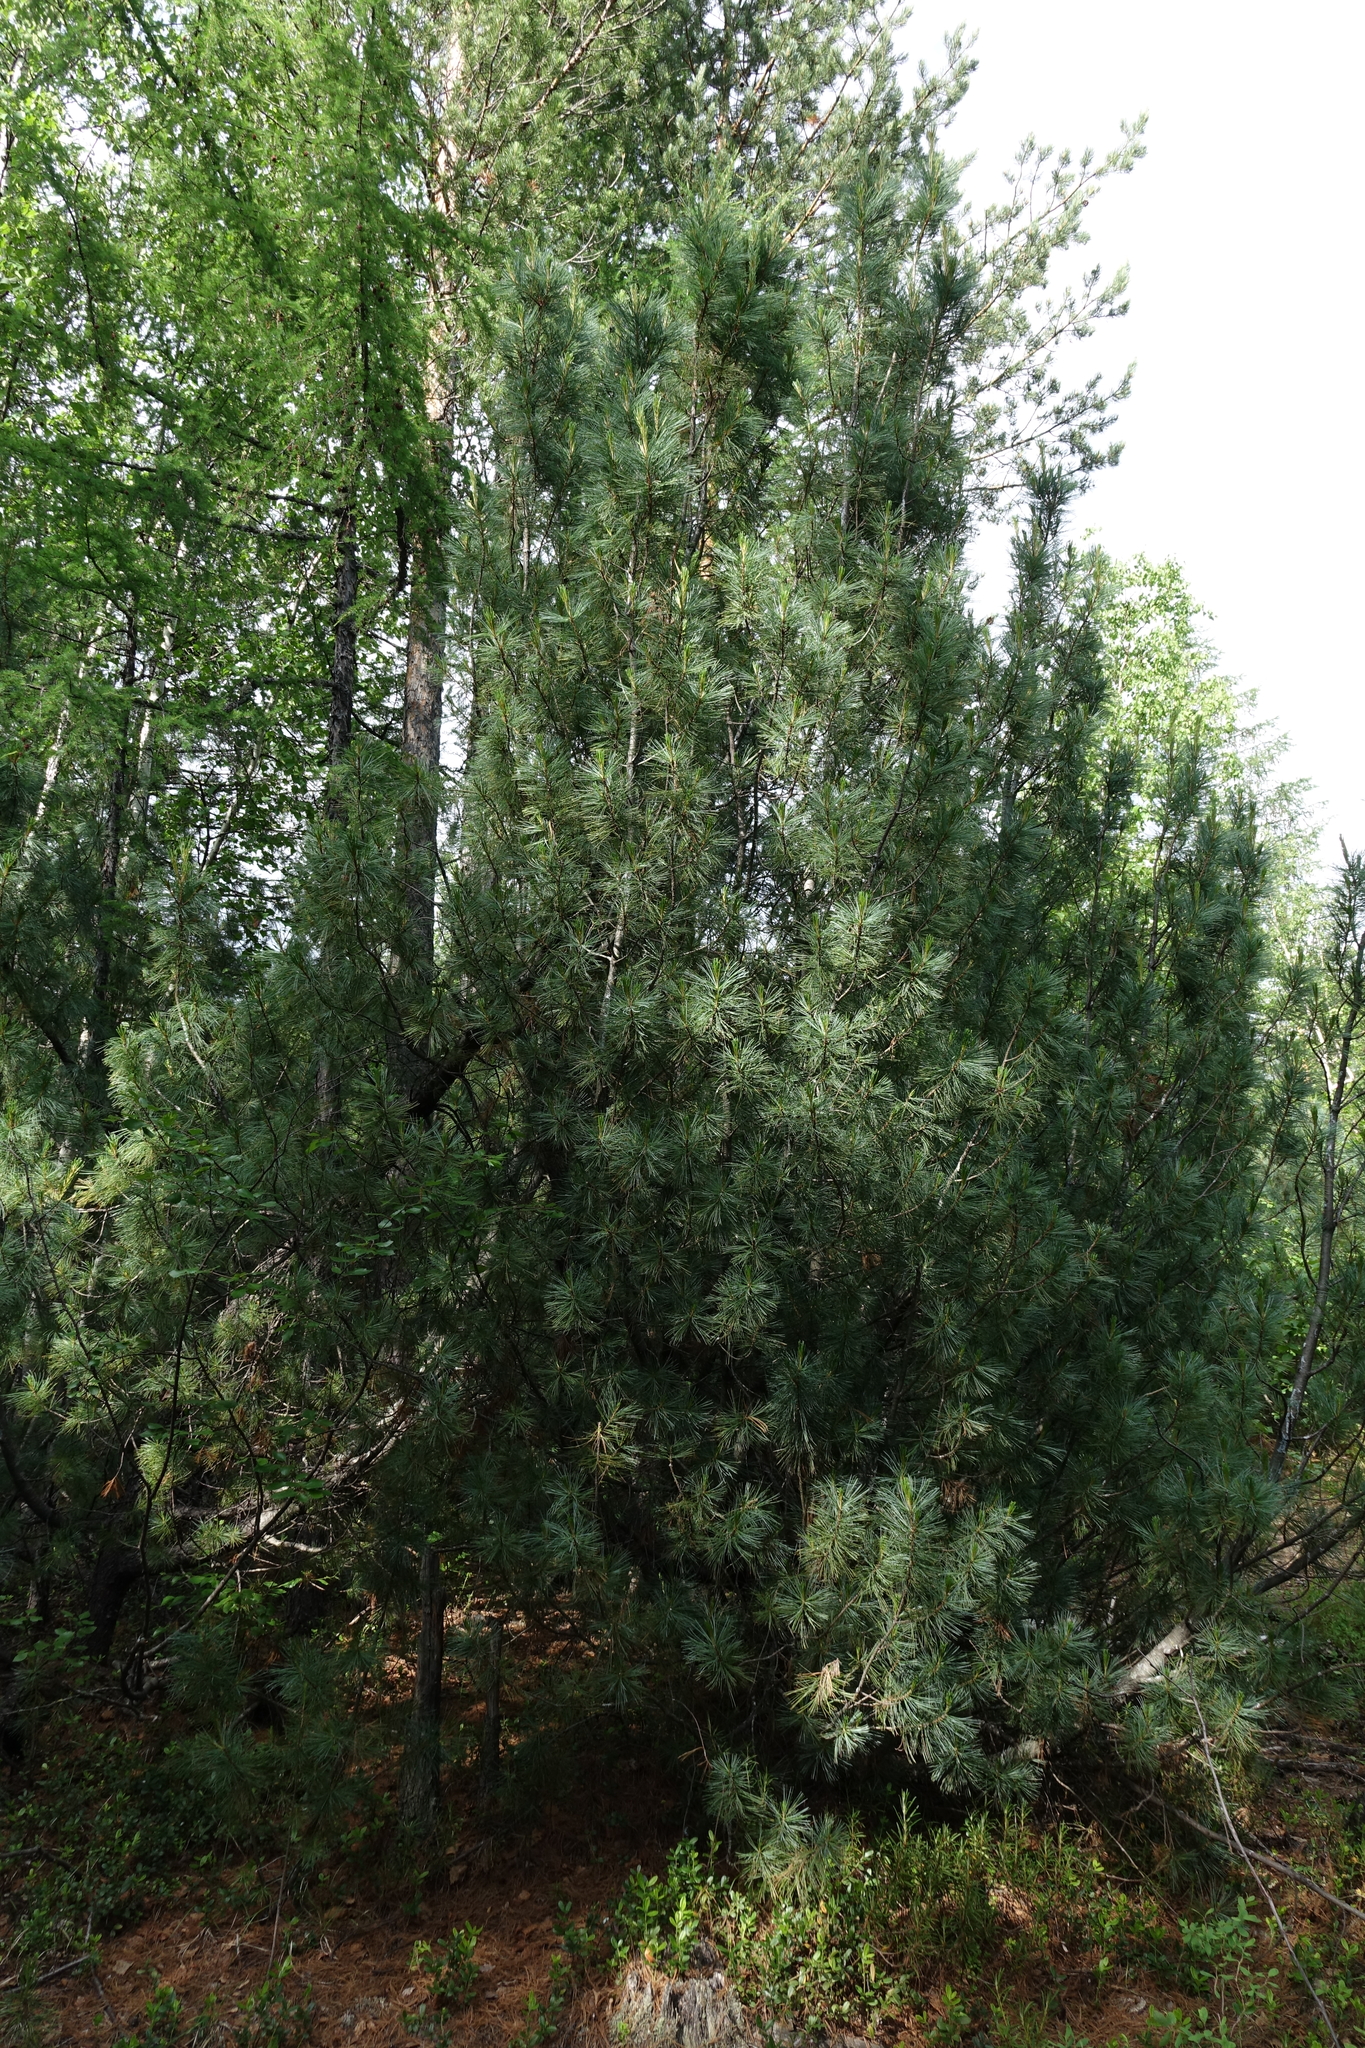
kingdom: Plantae
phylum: Tracheophyta
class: Pinopsida
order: Pinales
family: Pinaceae
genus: Pinus
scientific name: Pinus pumila
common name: Dwarf siberian pine
